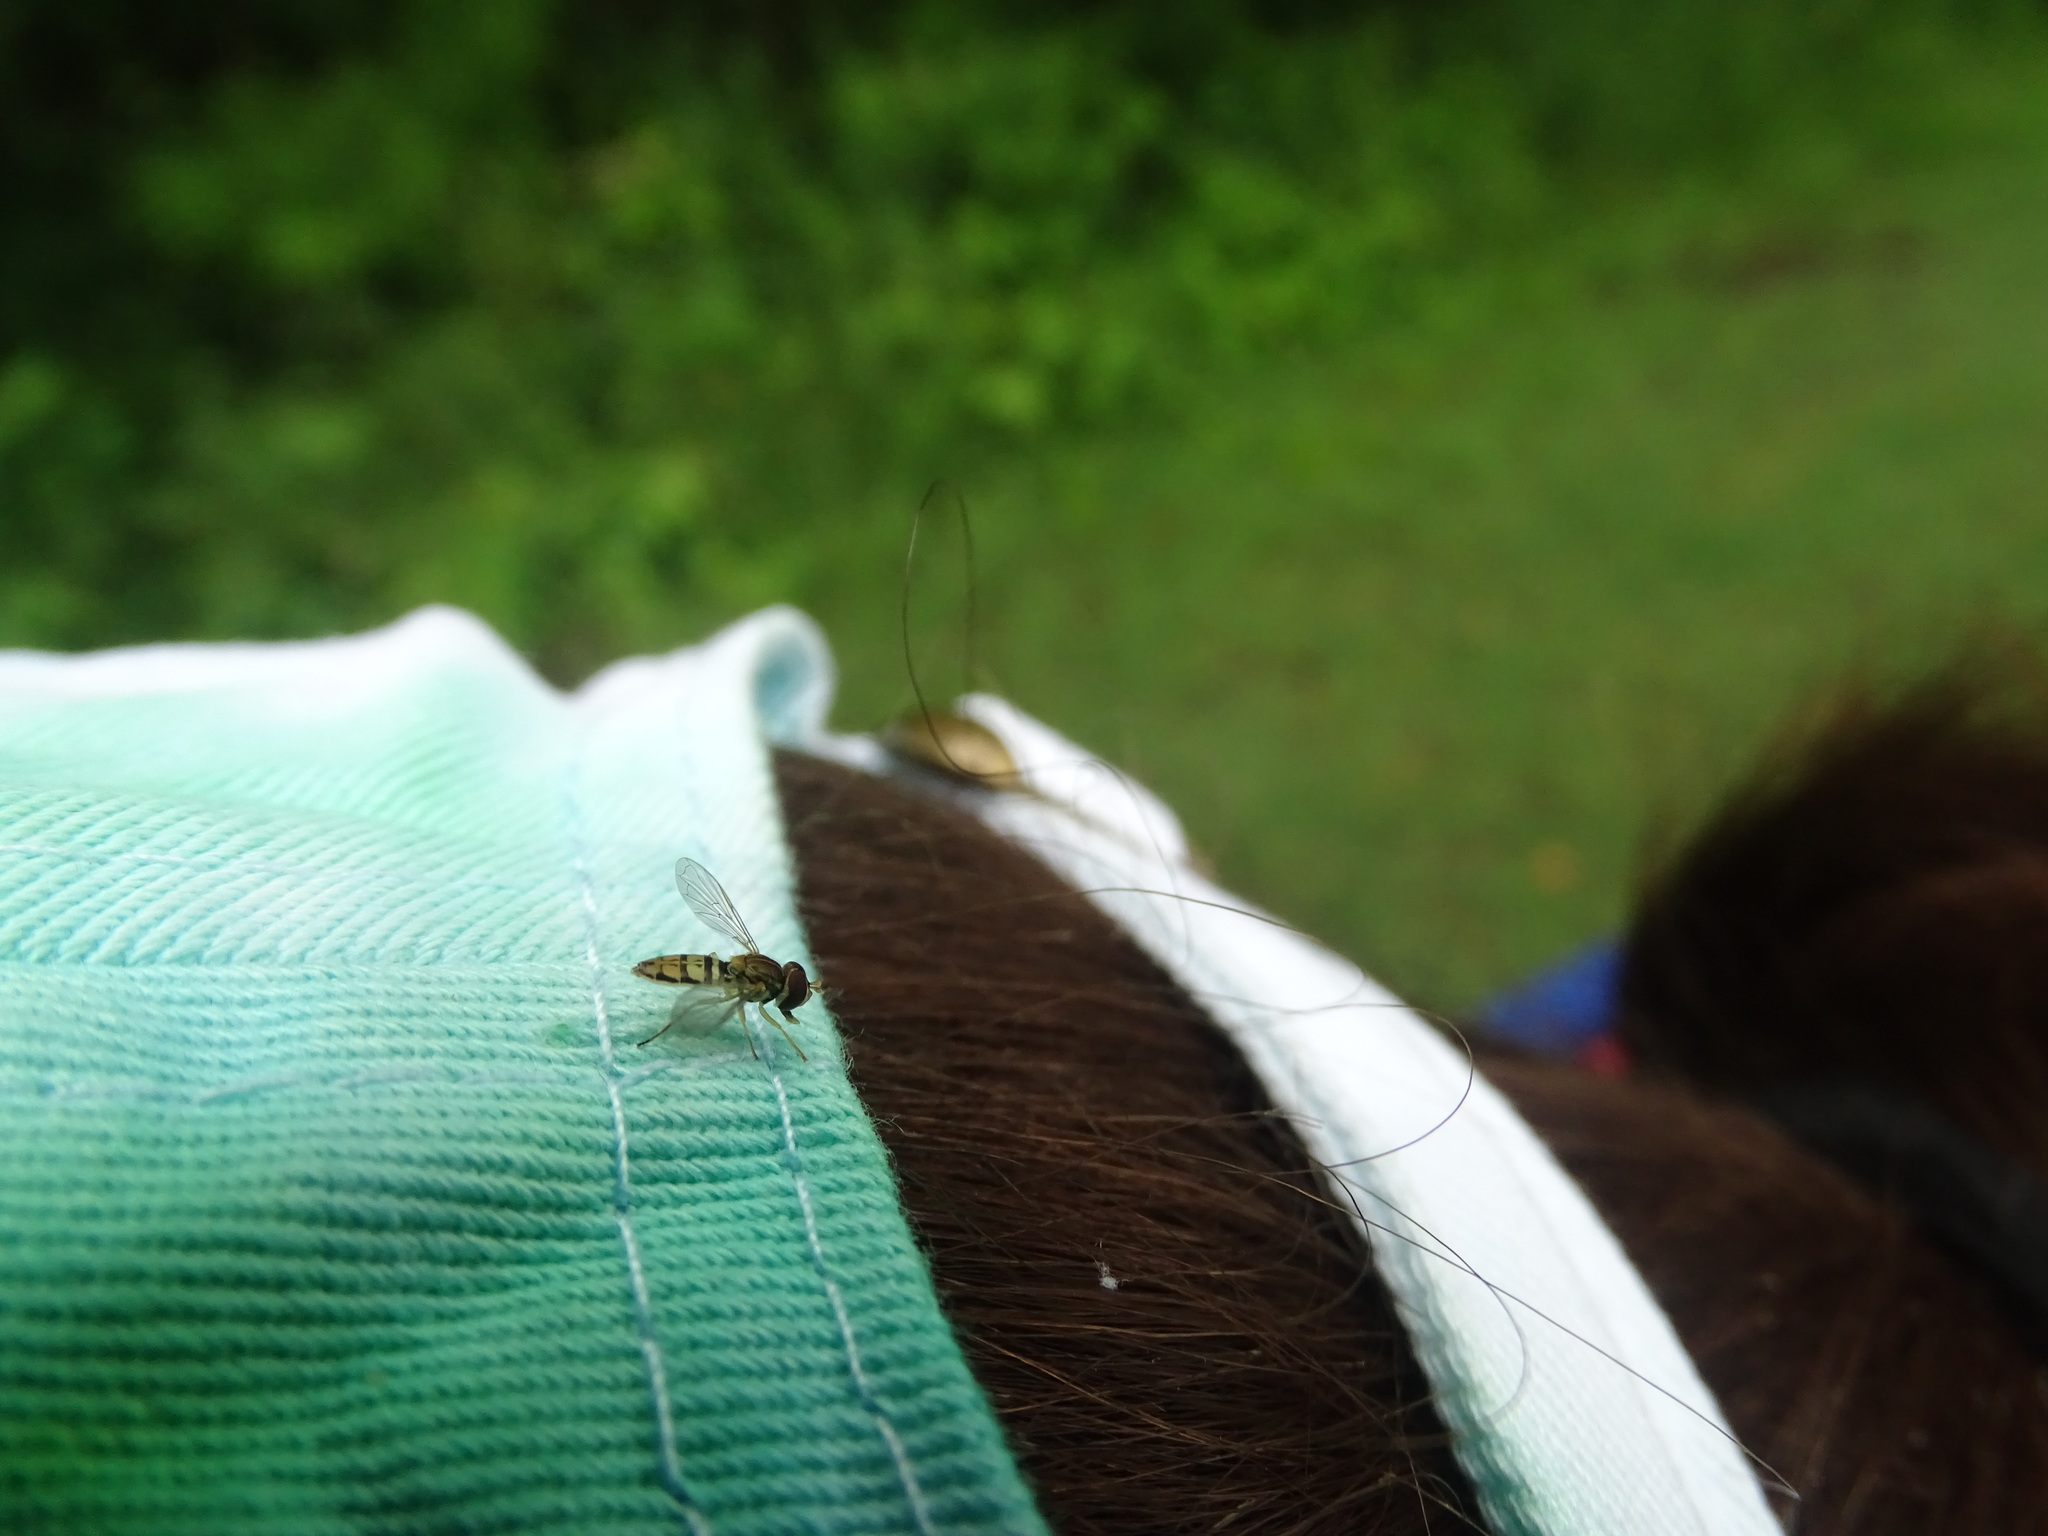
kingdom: Animalia
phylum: Arthropoda
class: Insecta
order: Diptera
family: Syrphidae
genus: Toxomerus
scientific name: Toxomerus marginatus
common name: Syrphid fly
